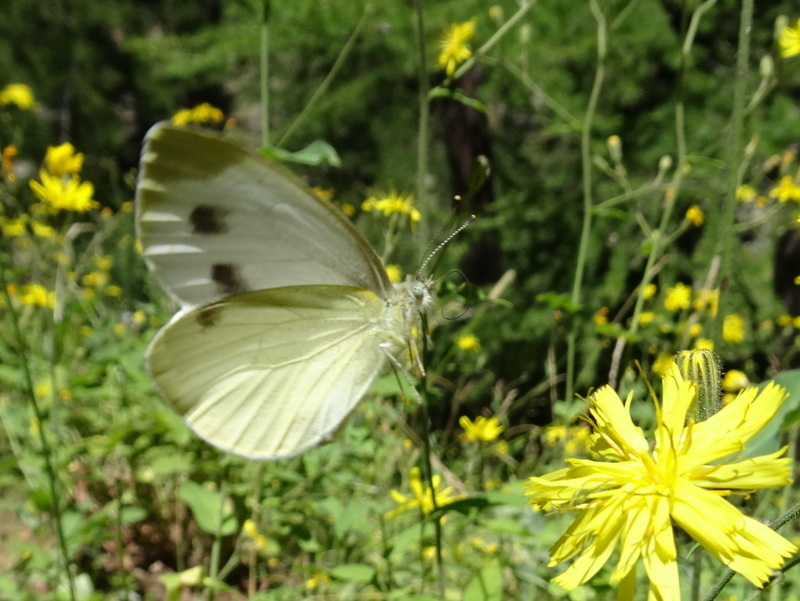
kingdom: Animalia
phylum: Arthropoda
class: Insecta
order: Lepidoptera
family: Pieridae
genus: Pieris
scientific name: Pieris rapae
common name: Small white
